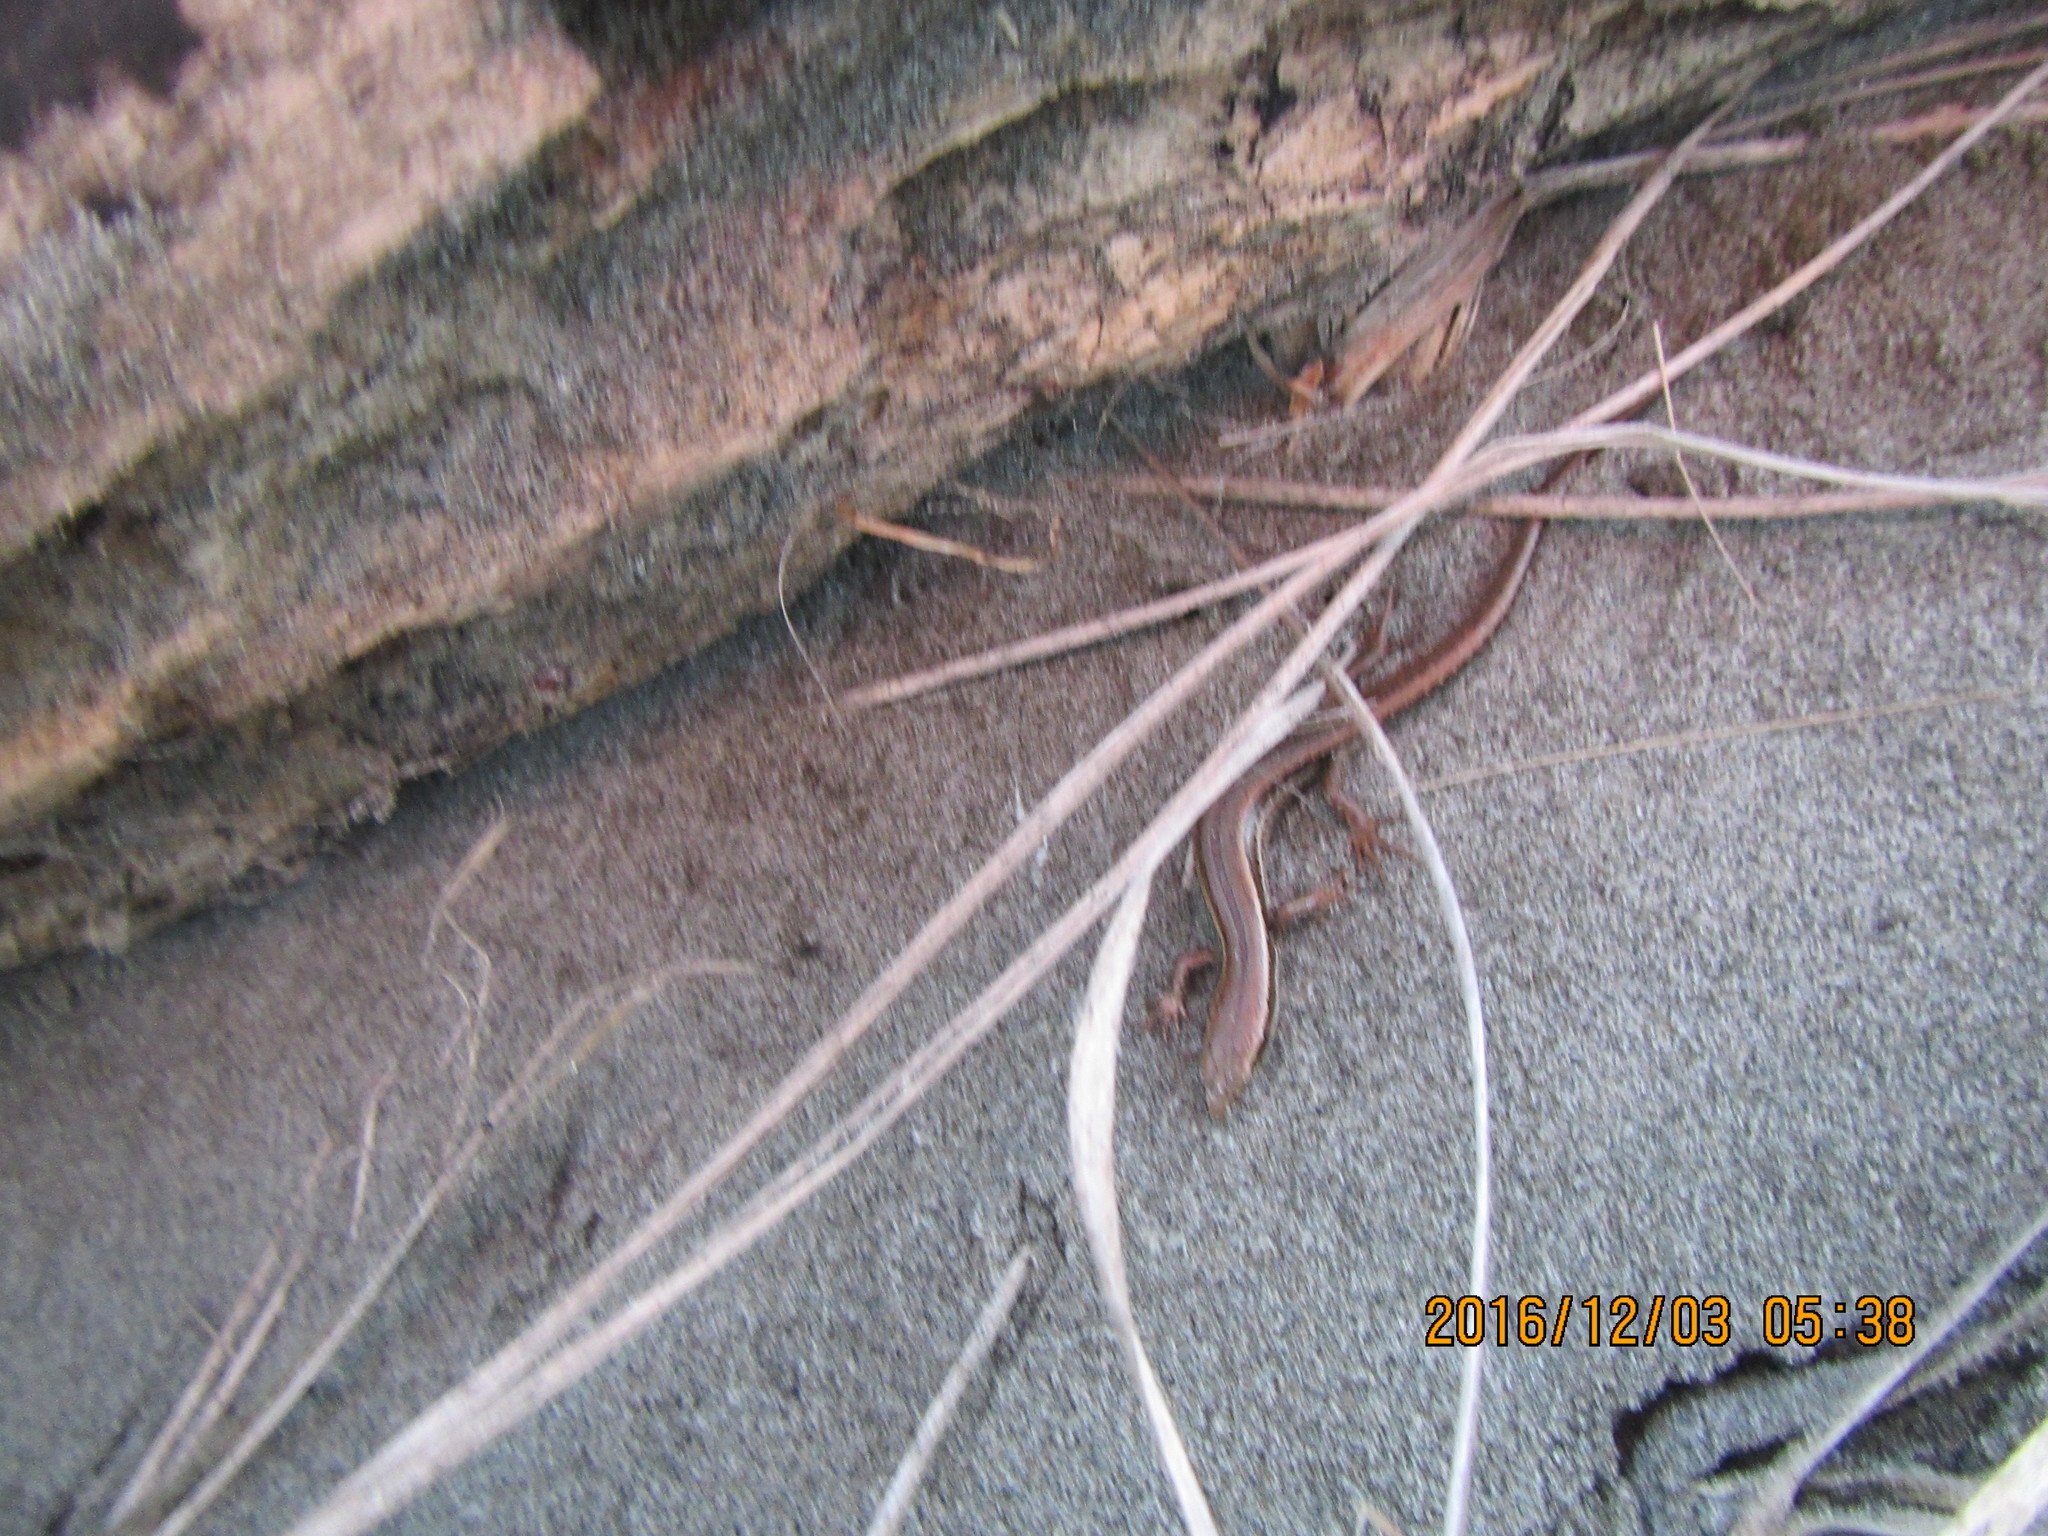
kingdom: Animalia
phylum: Chordata
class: Squamata
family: Scincidae
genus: Oligosoma
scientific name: Oligosoma polychroma
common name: Common new zealand skink
